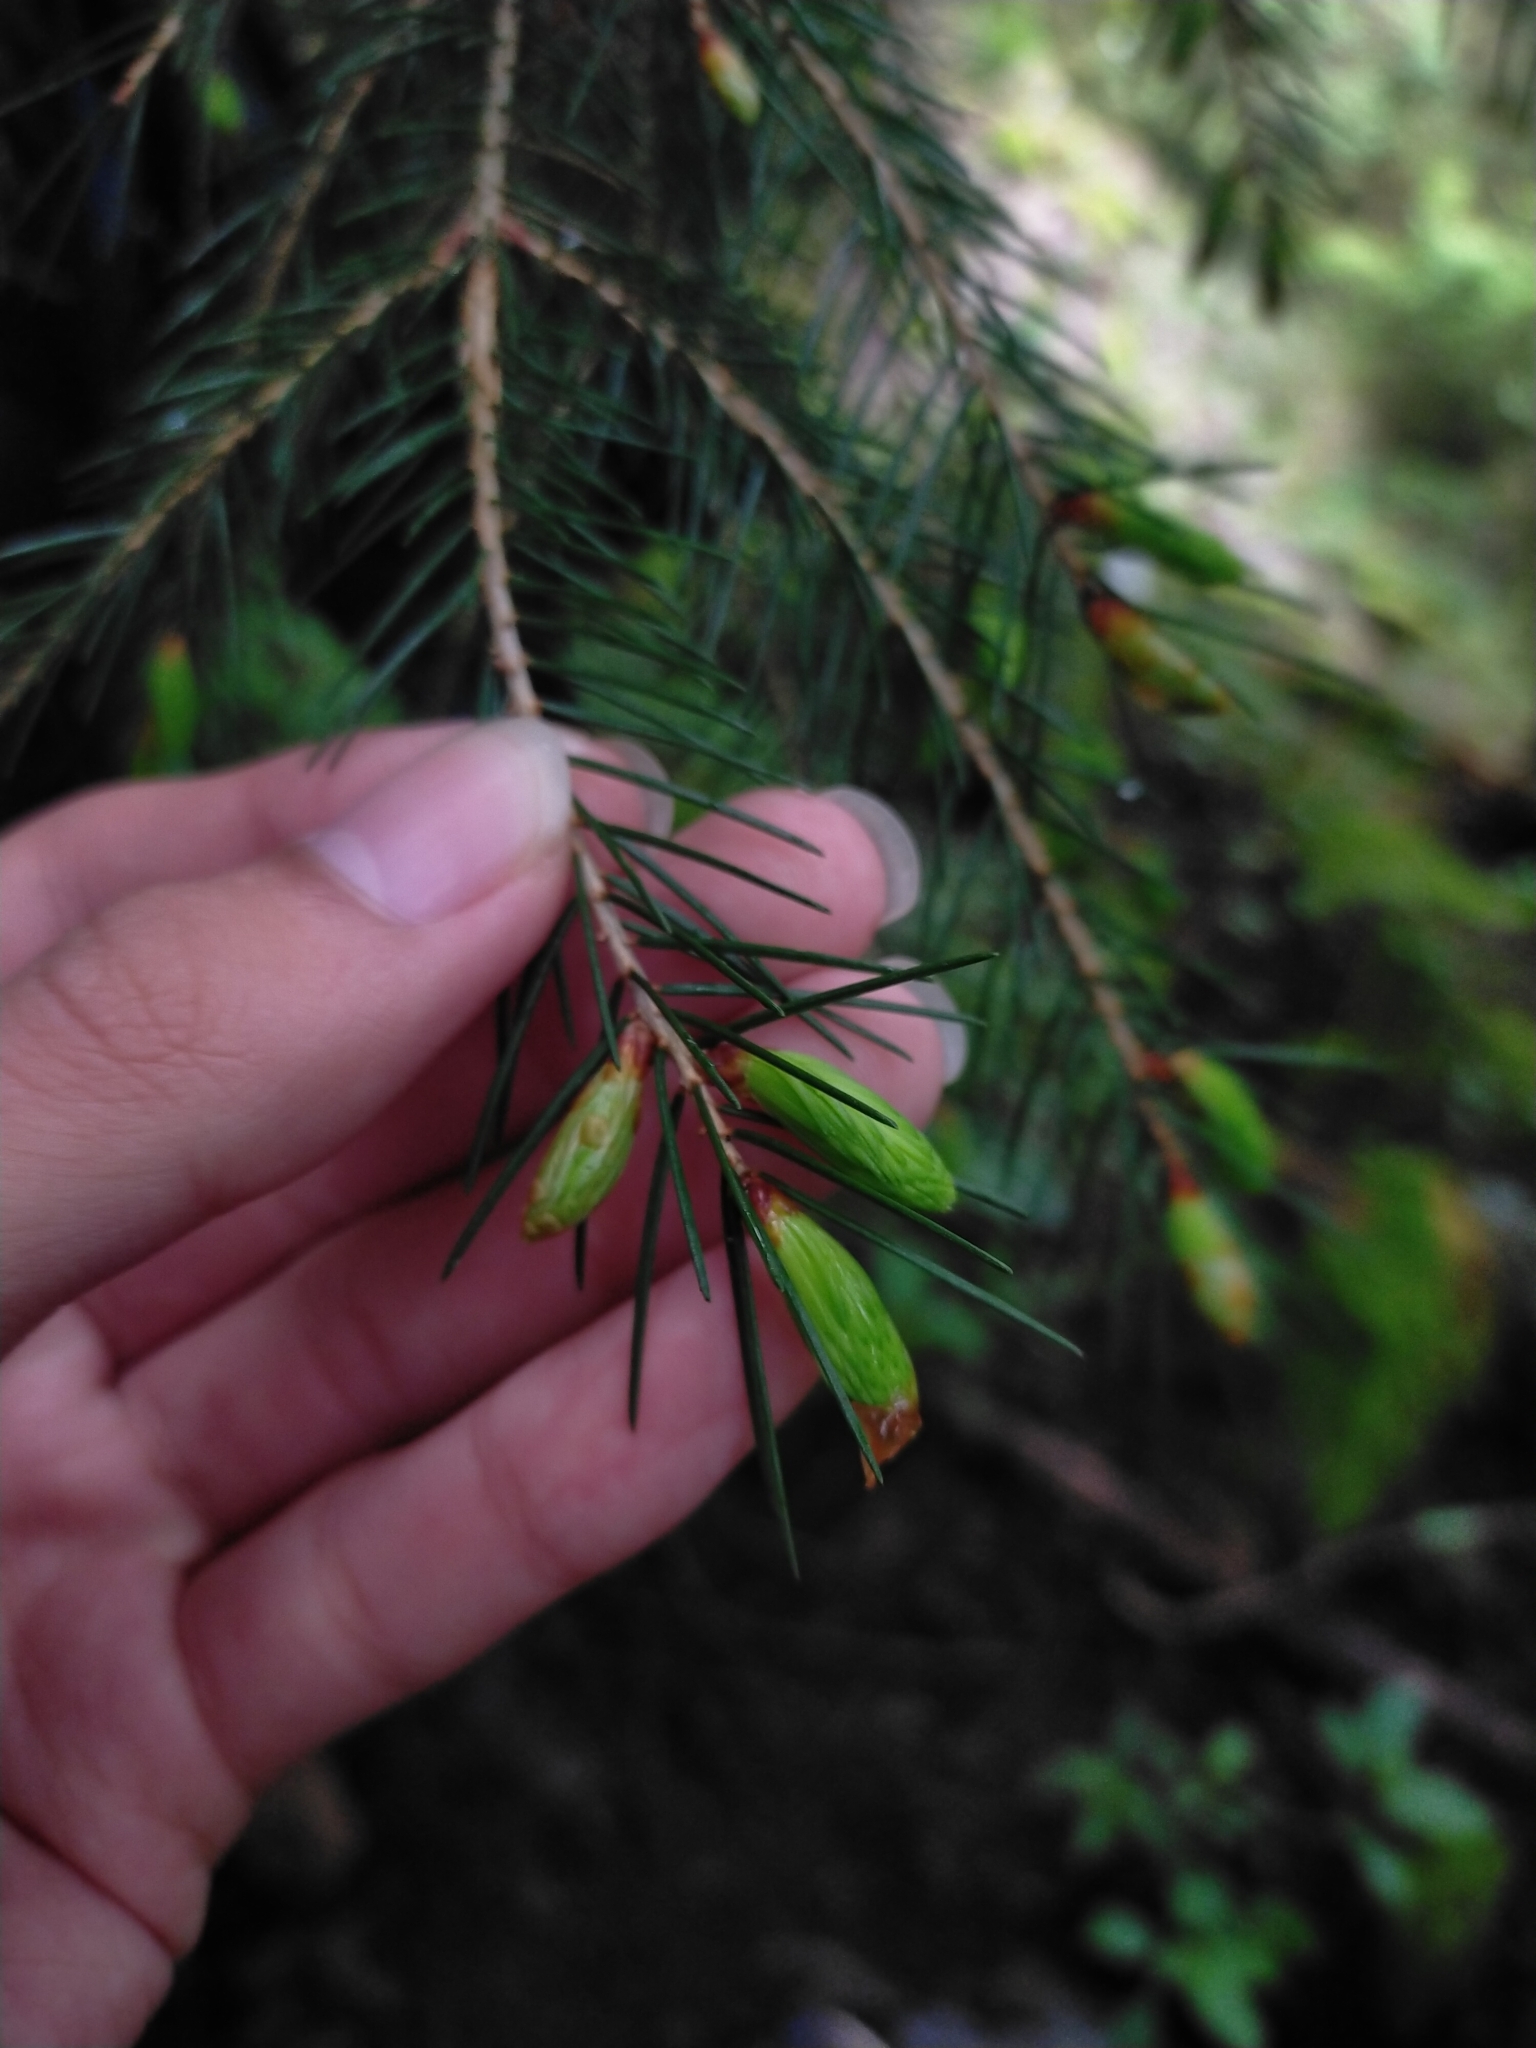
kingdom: Plantae
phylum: Tracheophyta
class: Pinopsida
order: Pinales
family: Pinaceae
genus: Picea
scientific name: Picea morrisonicola
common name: Mount morrison spruce
